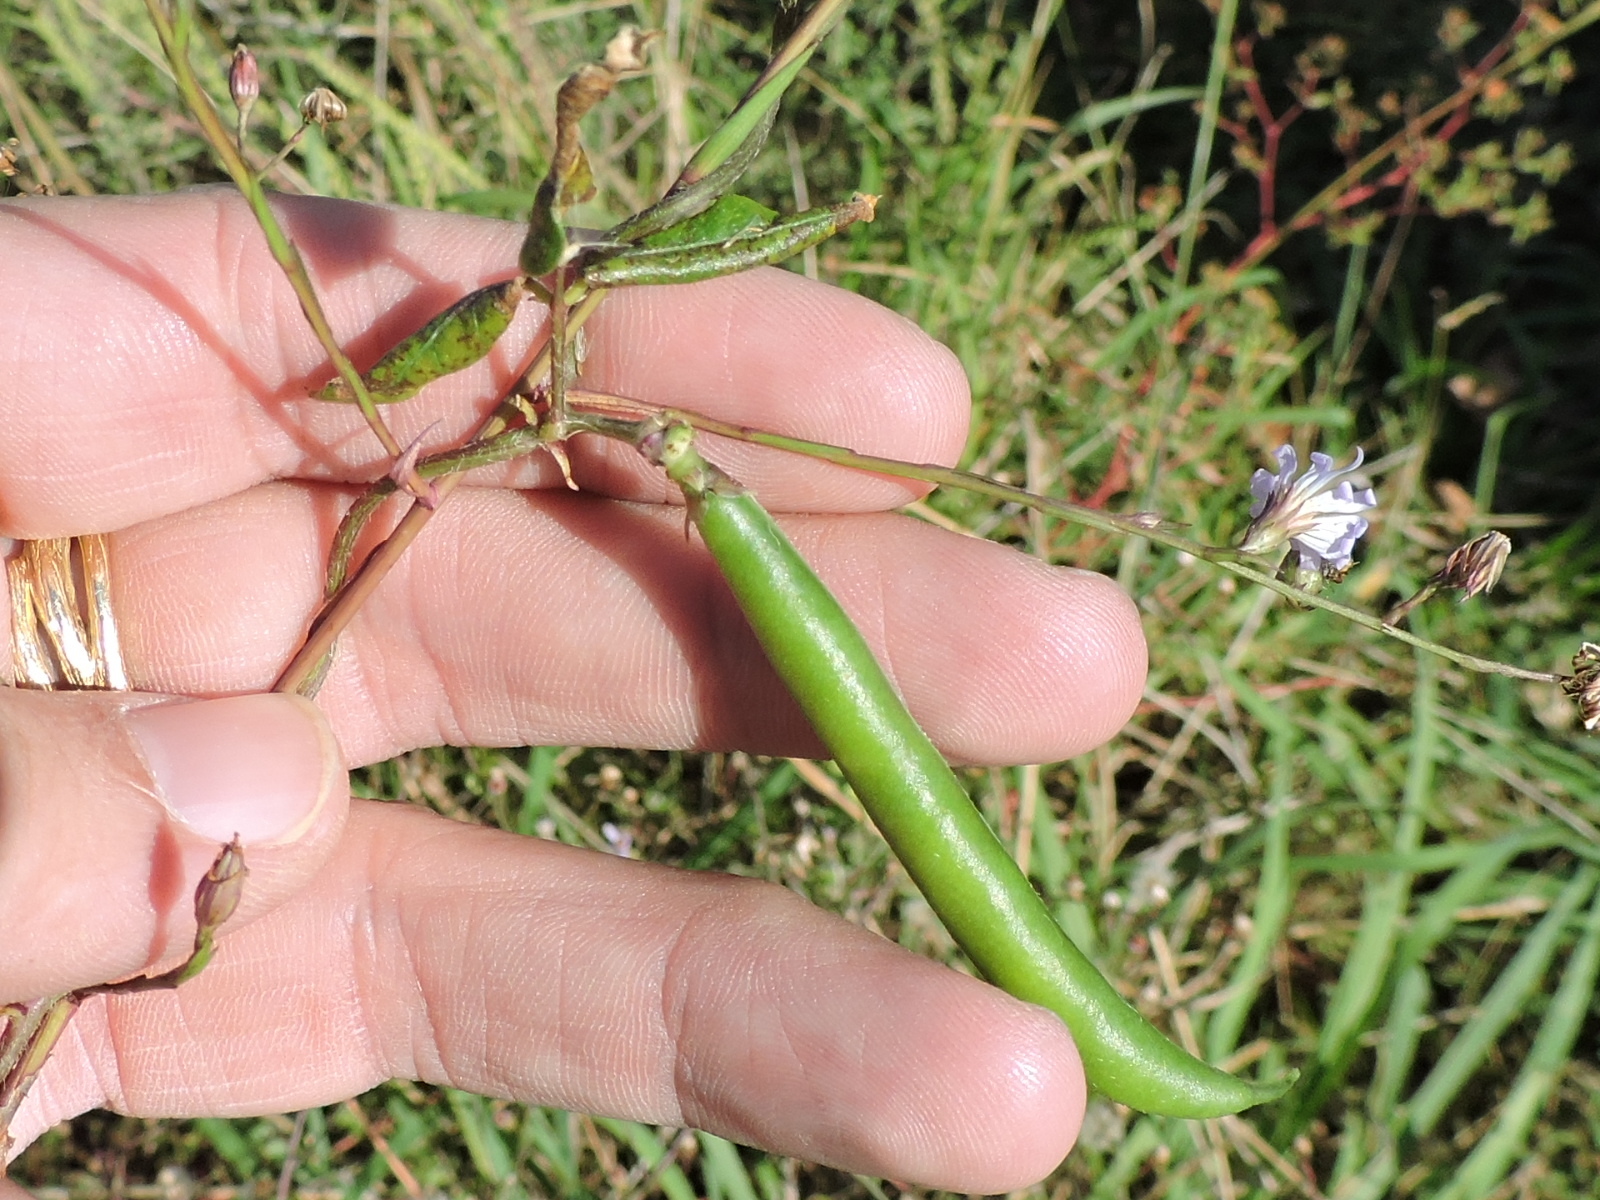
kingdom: Plantae
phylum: Tracheophyta
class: Magnoliopsida
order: Fabales
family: Fabaceae
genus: Strophostyles
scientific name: Strophostyles helvola
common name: Trailing wild bean
